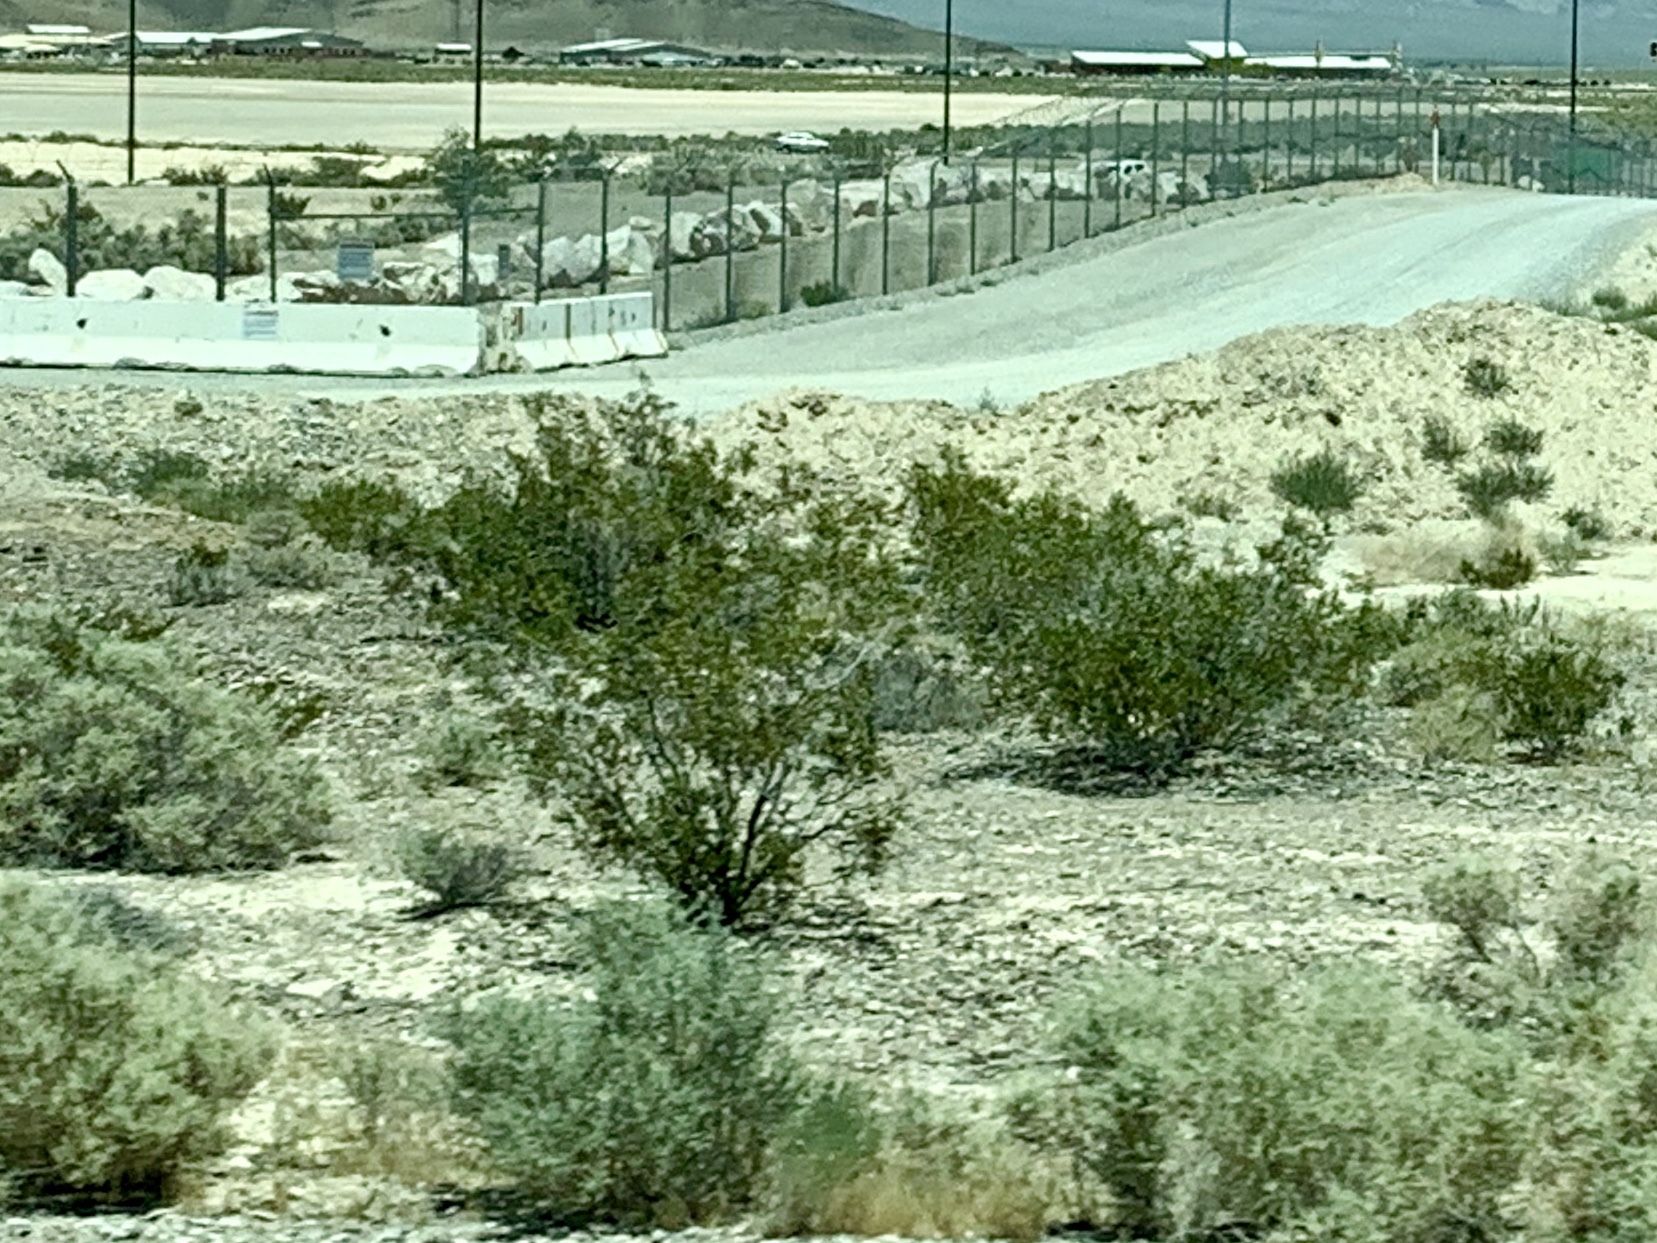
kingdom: Plantae
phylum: Tracheophyta
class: Magnoliopsida
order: Zygophyllales
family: Zygophyllaceae
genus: Larrea
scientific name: Larrea tridentata
